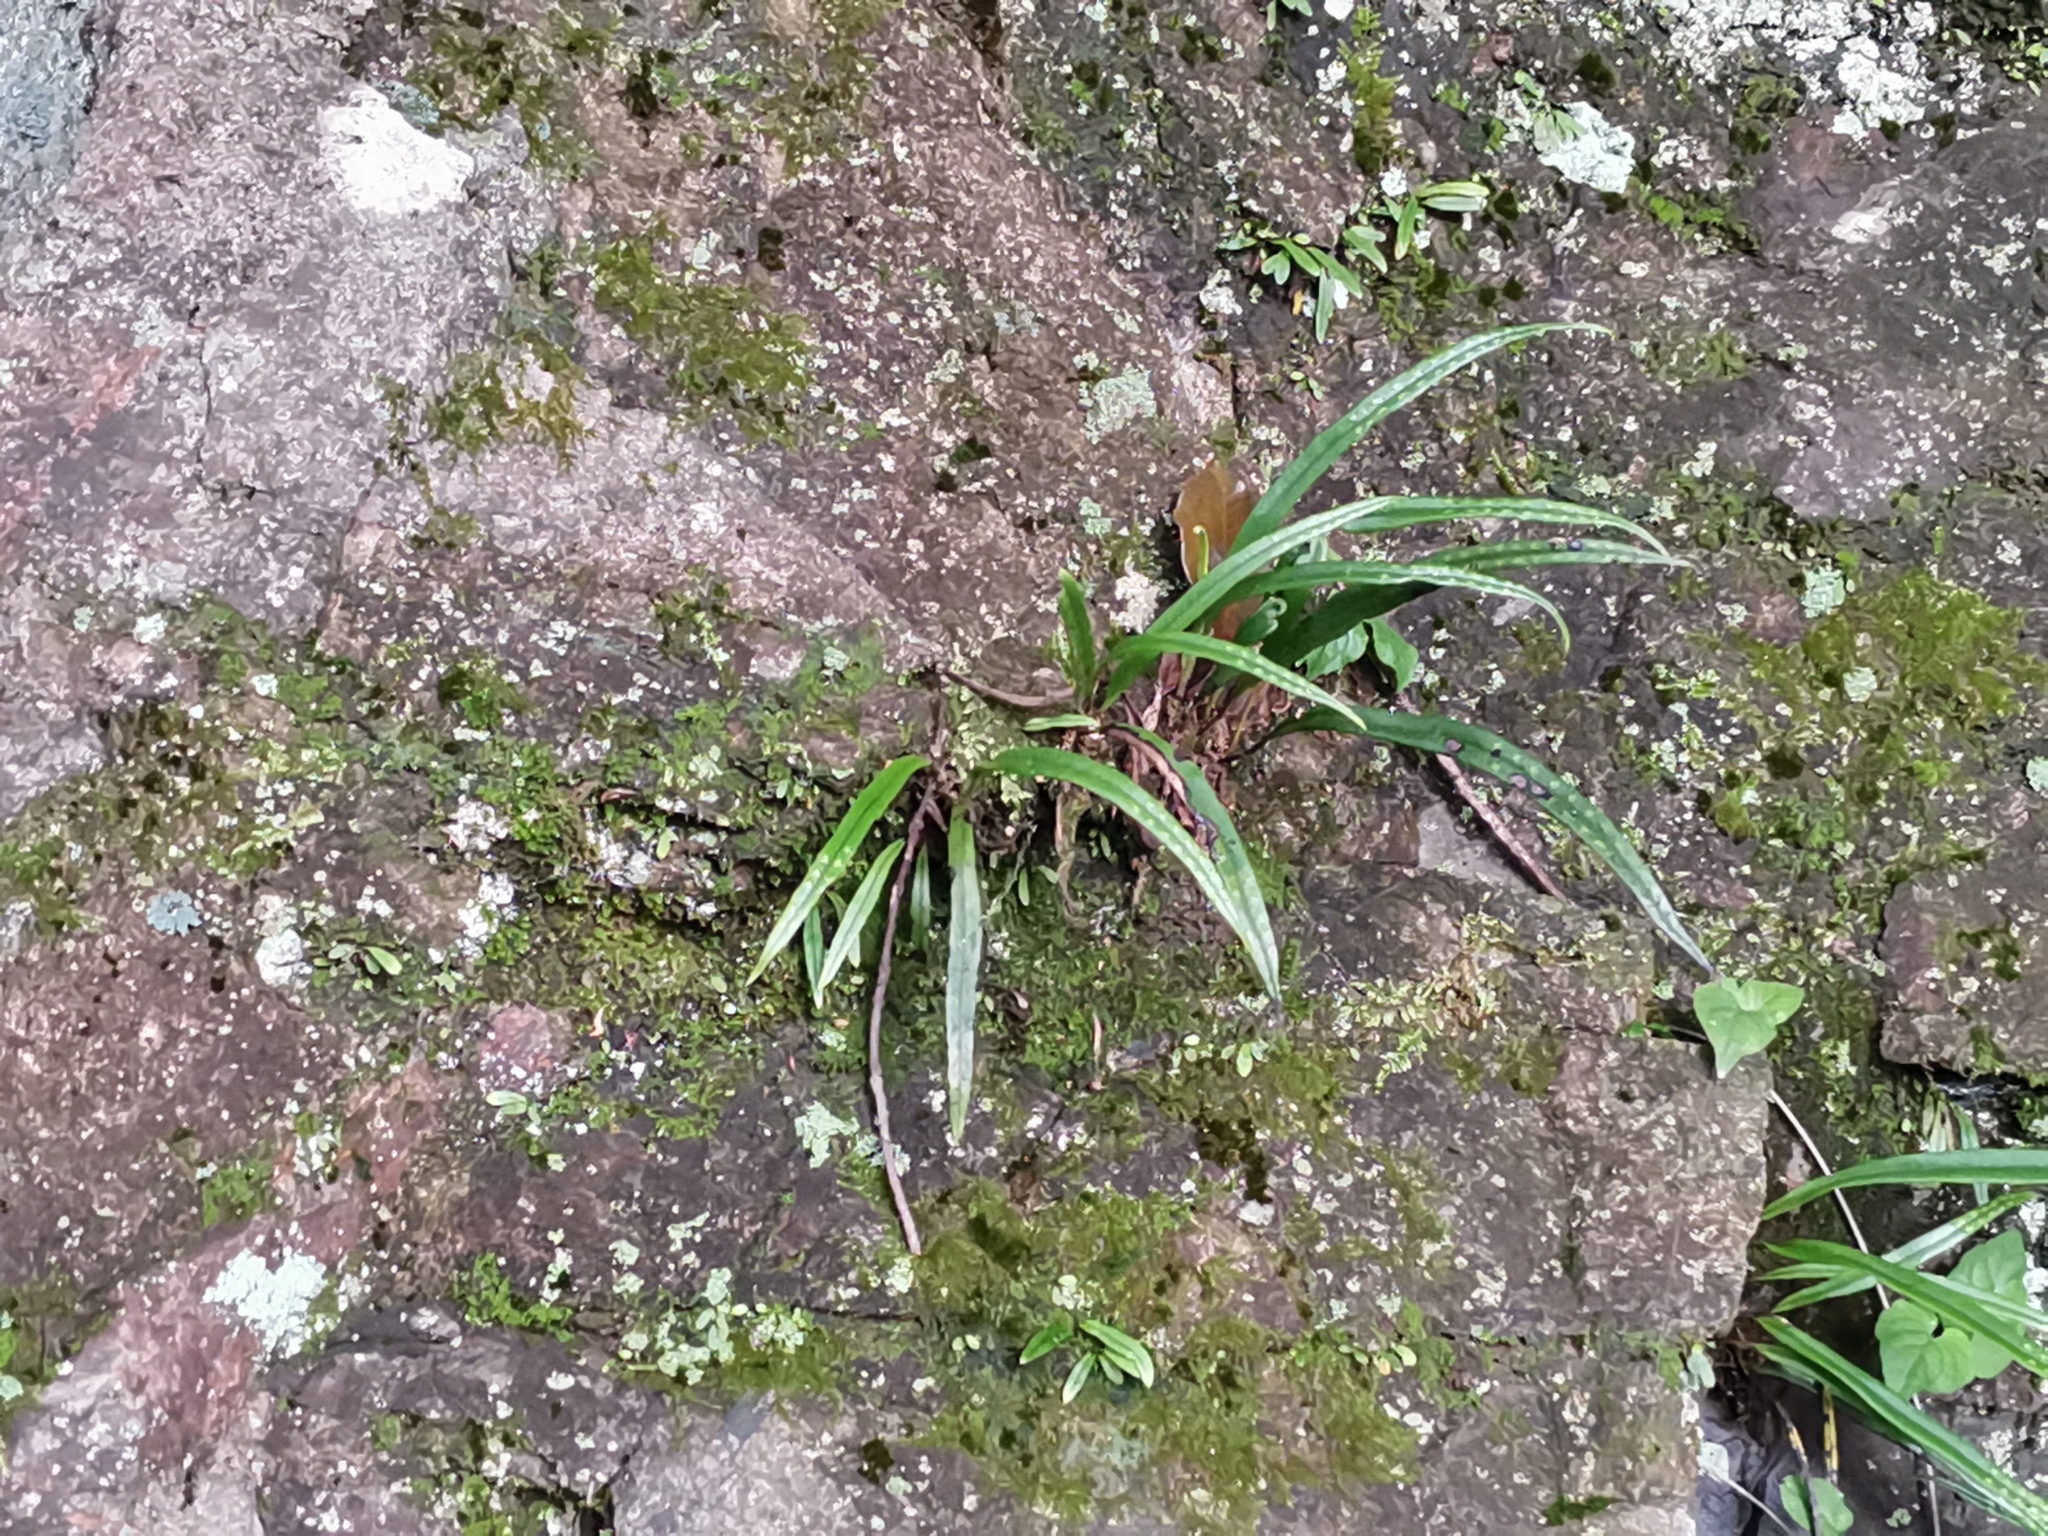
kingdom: Plantae
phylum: Tracheophyta
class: Polypodiopsida
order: Polypodiales
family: Polypodiaceae
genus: Lepisorus
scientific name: Lepisorus thunbergianus
